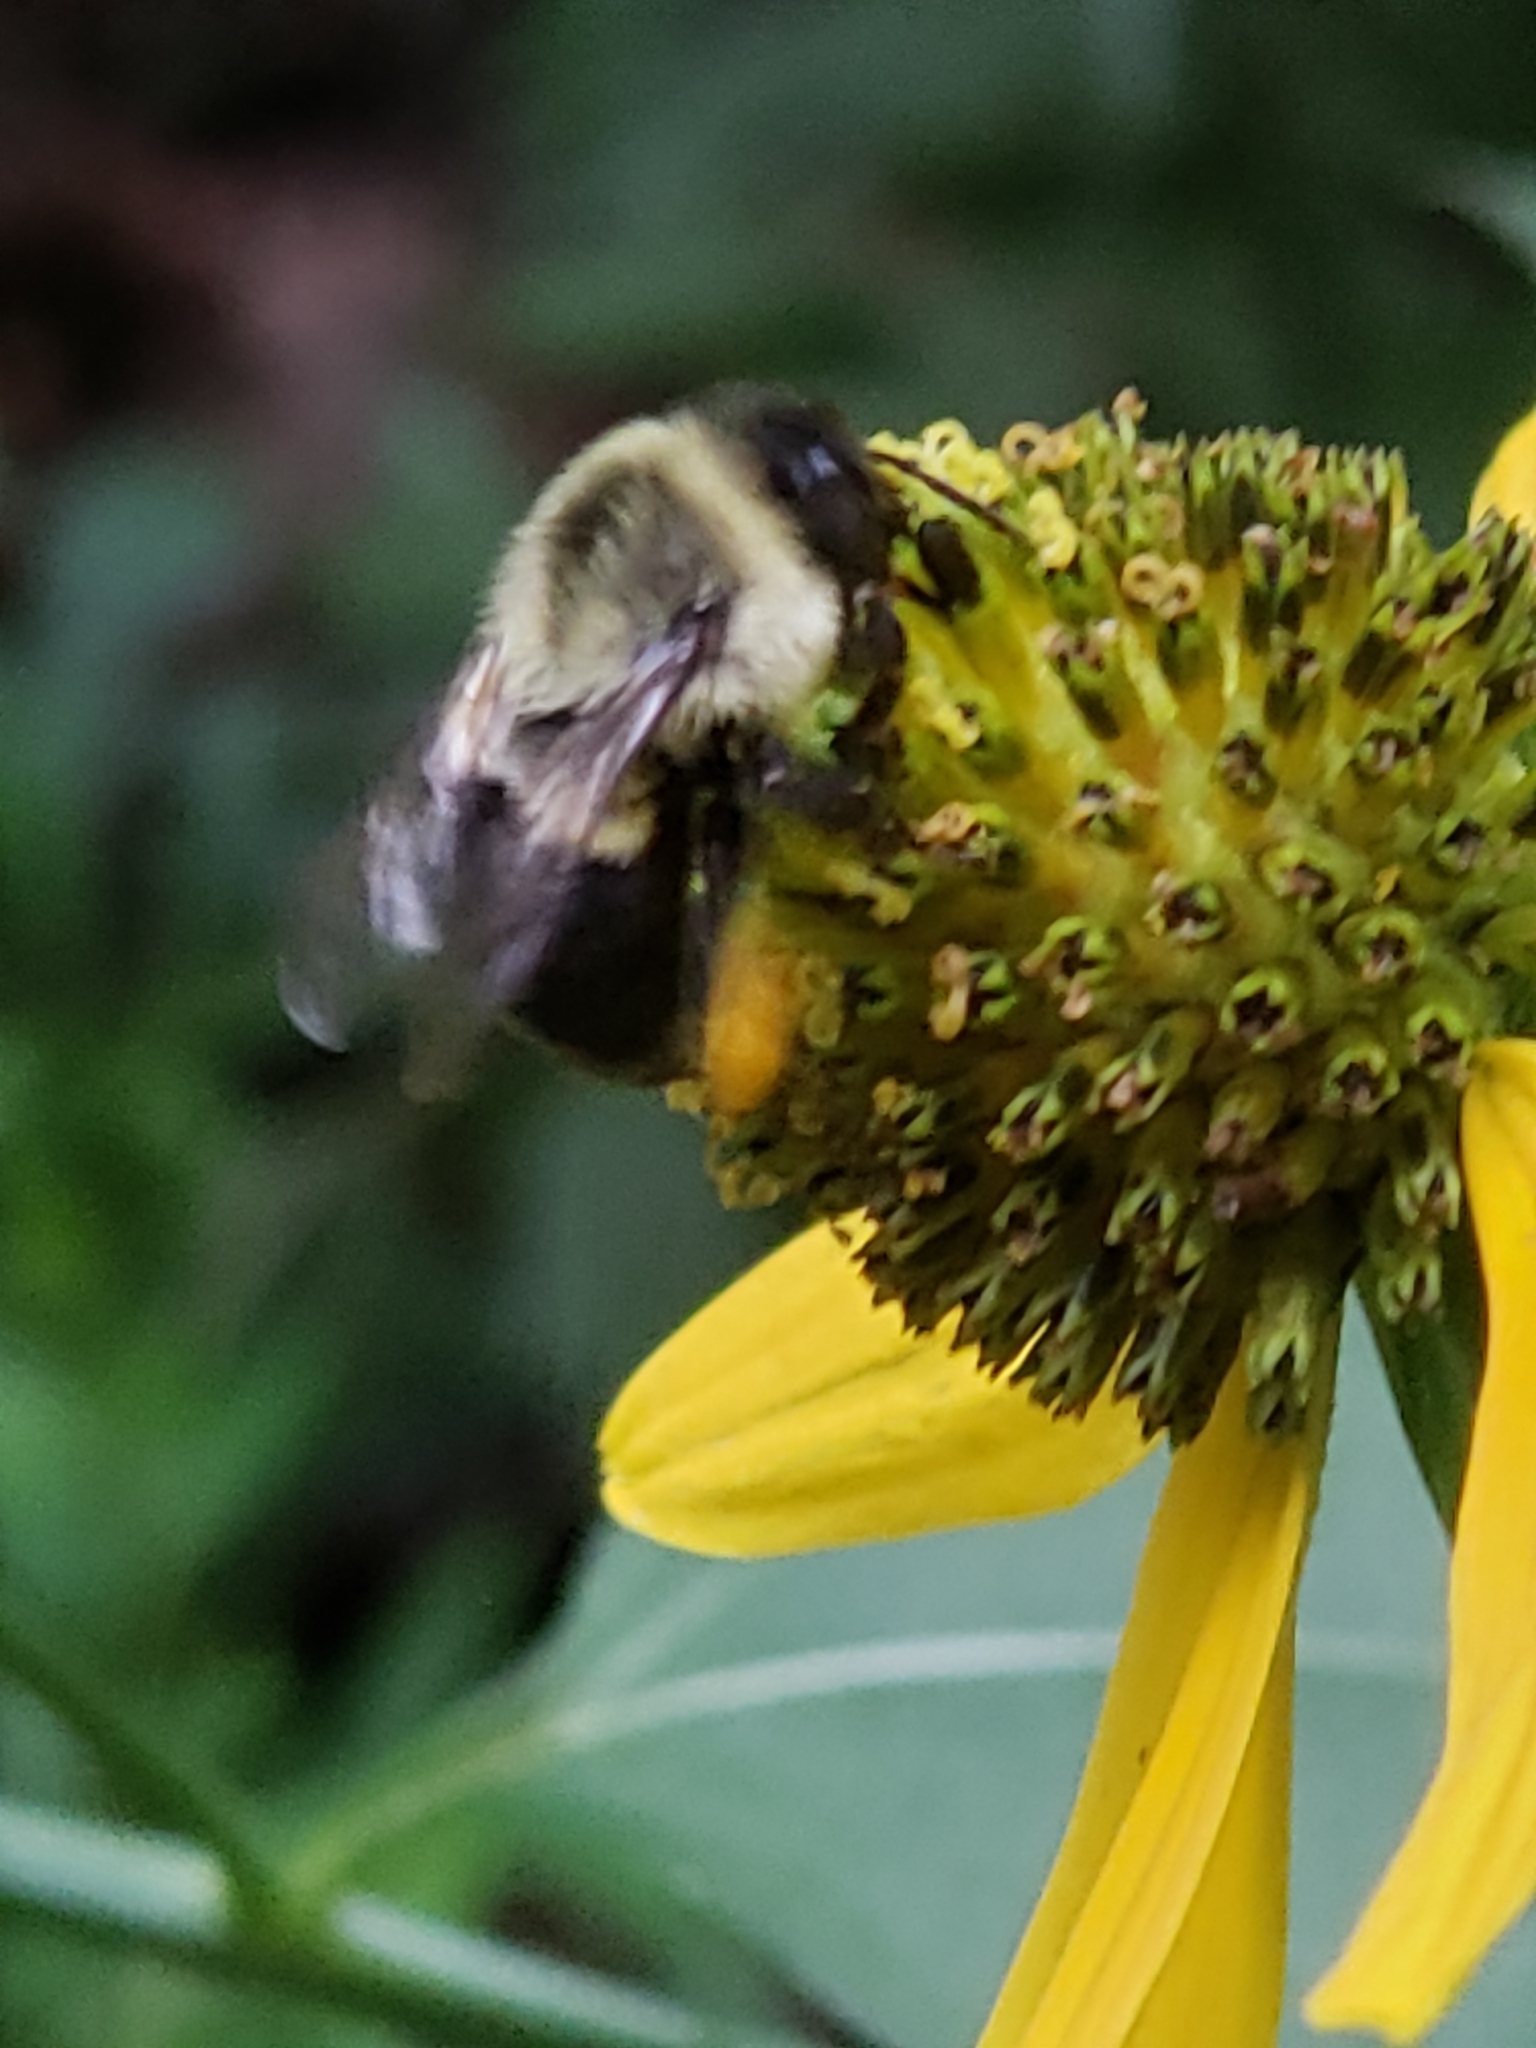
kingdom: Animalia
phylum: Arthropoda
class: Insecta
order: Hymenoptera
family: Apidae
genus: Bombus
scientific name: Bombus impatiens
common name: Common eastern bumble bee
